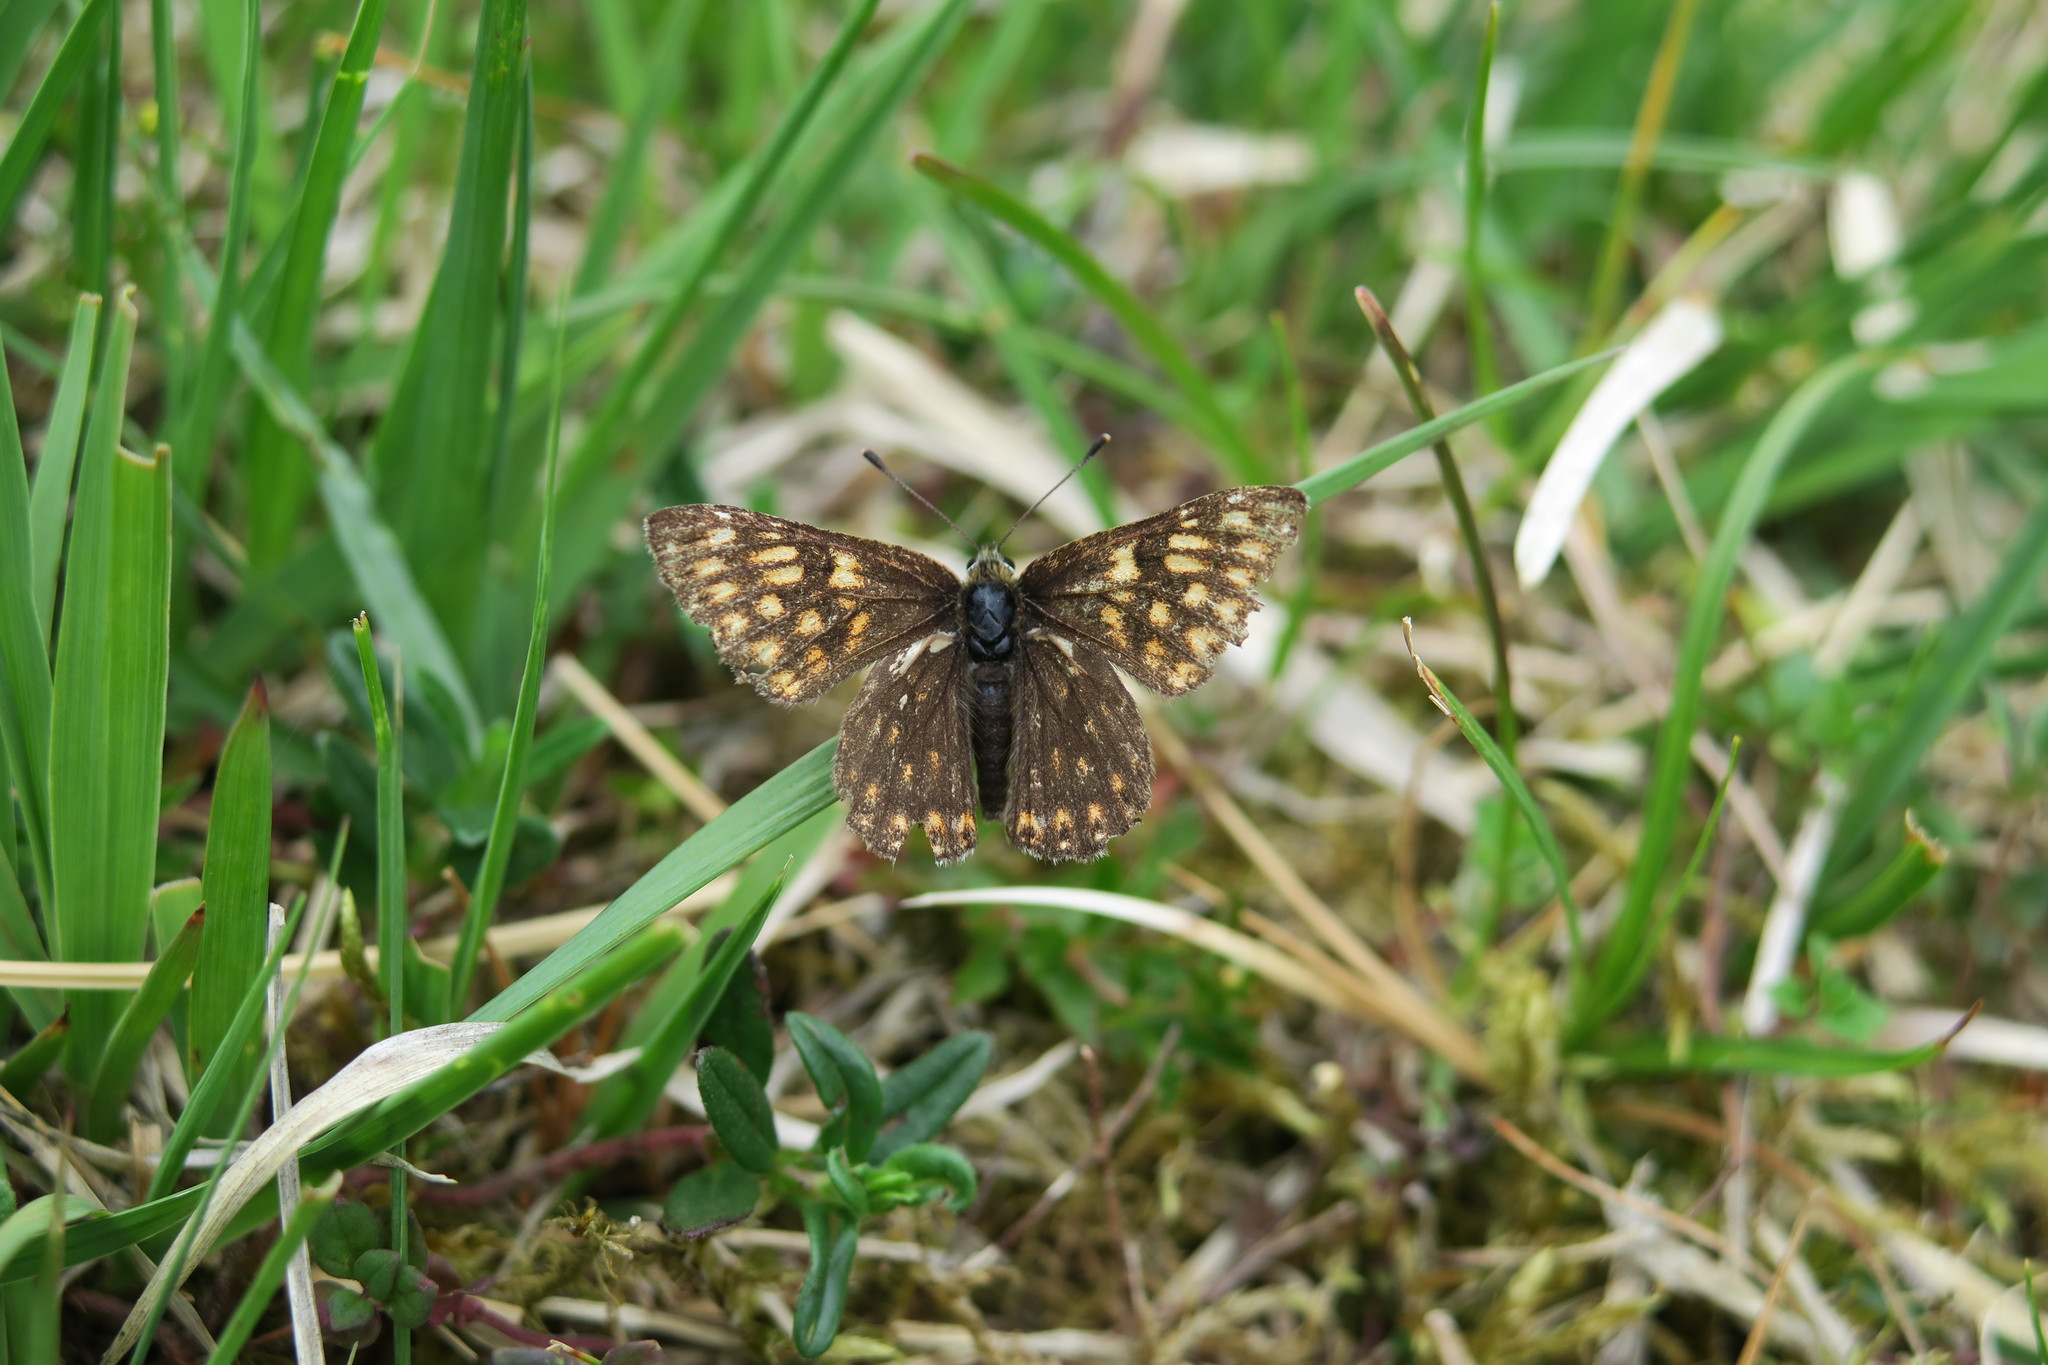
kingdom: Animalia
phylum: Arthropoda
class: Insecta
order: Lepidoptera
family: Riodinidae
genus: Hamearis
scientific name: Hamearis lucina
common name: Duke of burgundy fritillary
